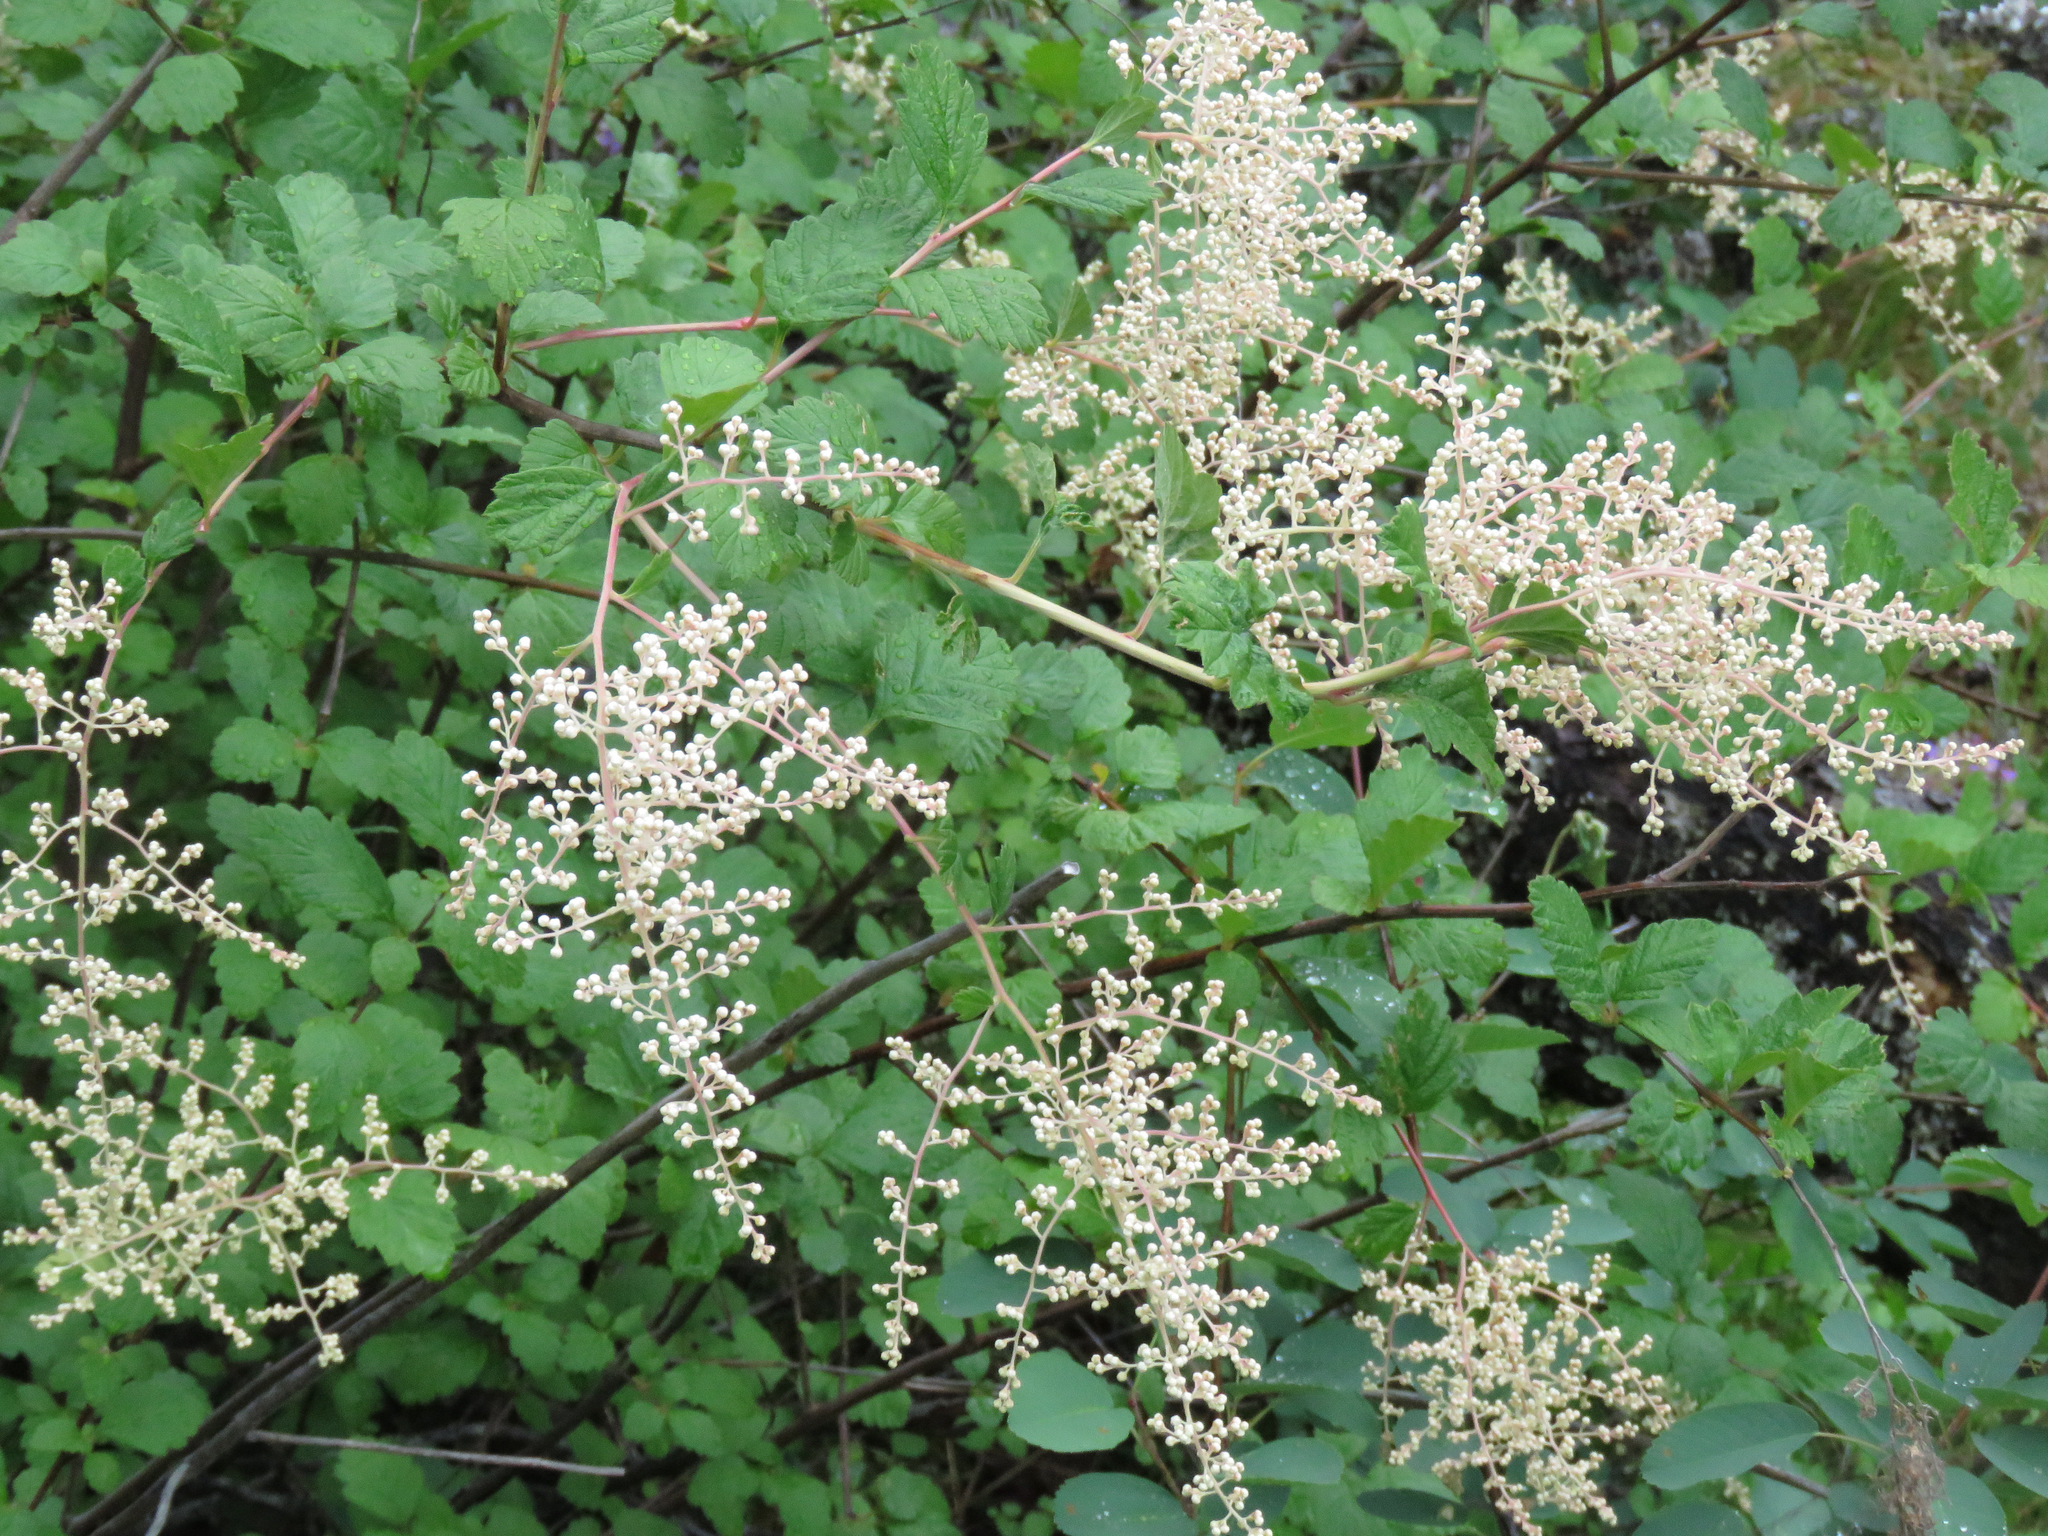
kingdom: Plantae
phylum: Tracheophyta
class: Magnoliopsida
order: Rosales
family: Rosaceae
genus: Holodiscus
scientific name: Holodiscus discolor
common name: Oceanspray
